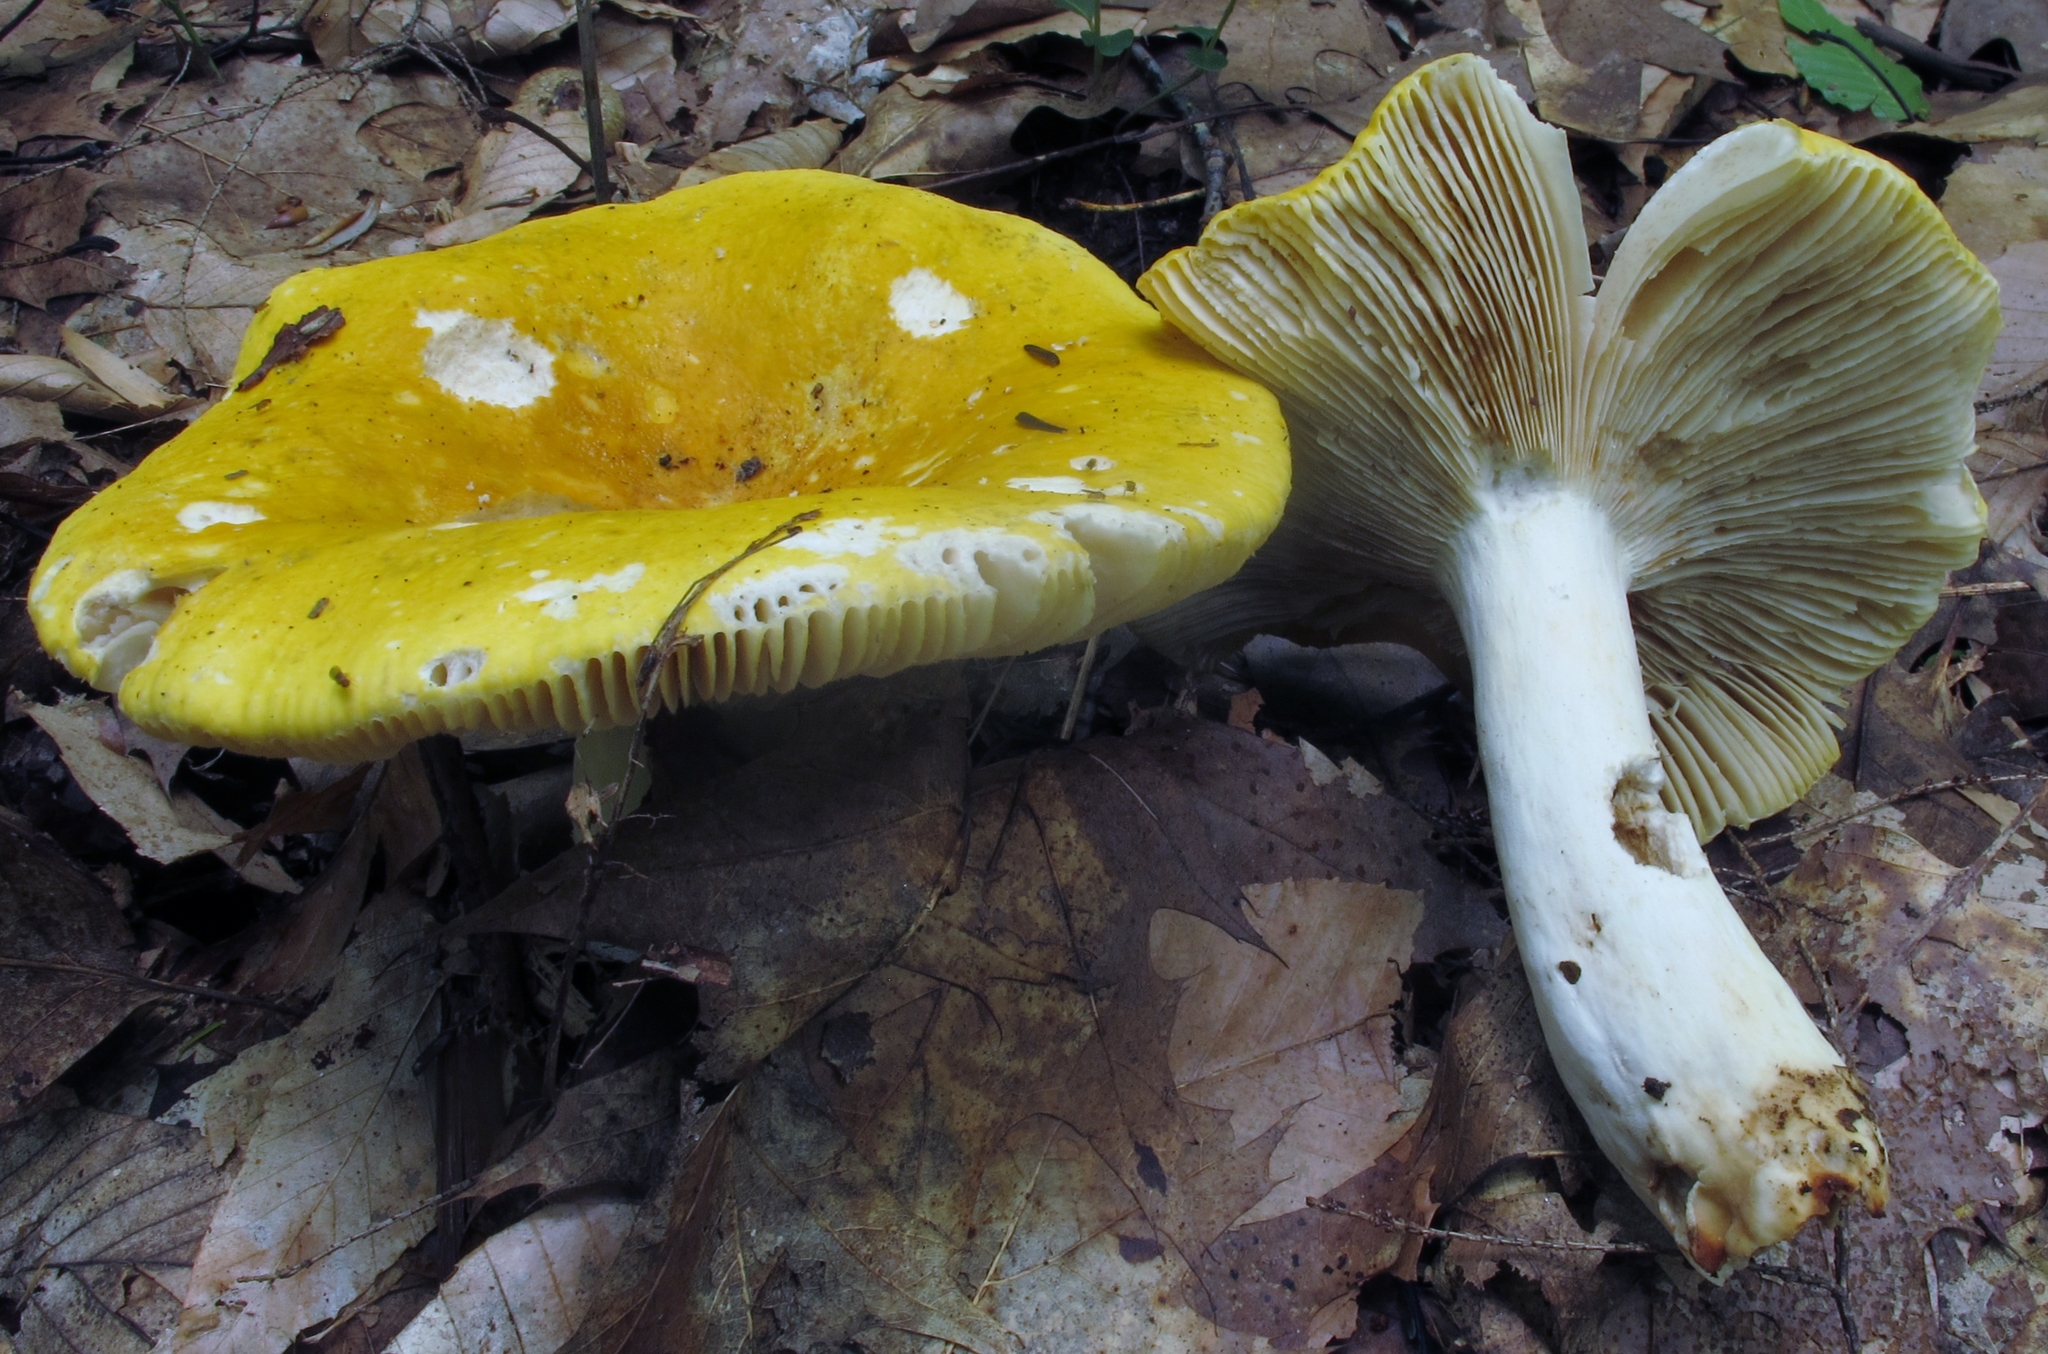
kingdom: Fungi
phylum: Basidiomycota
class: Agaricomycetes
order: Russulales
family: Russulaceae
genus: Russula
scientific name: Russula ochroleucoides
